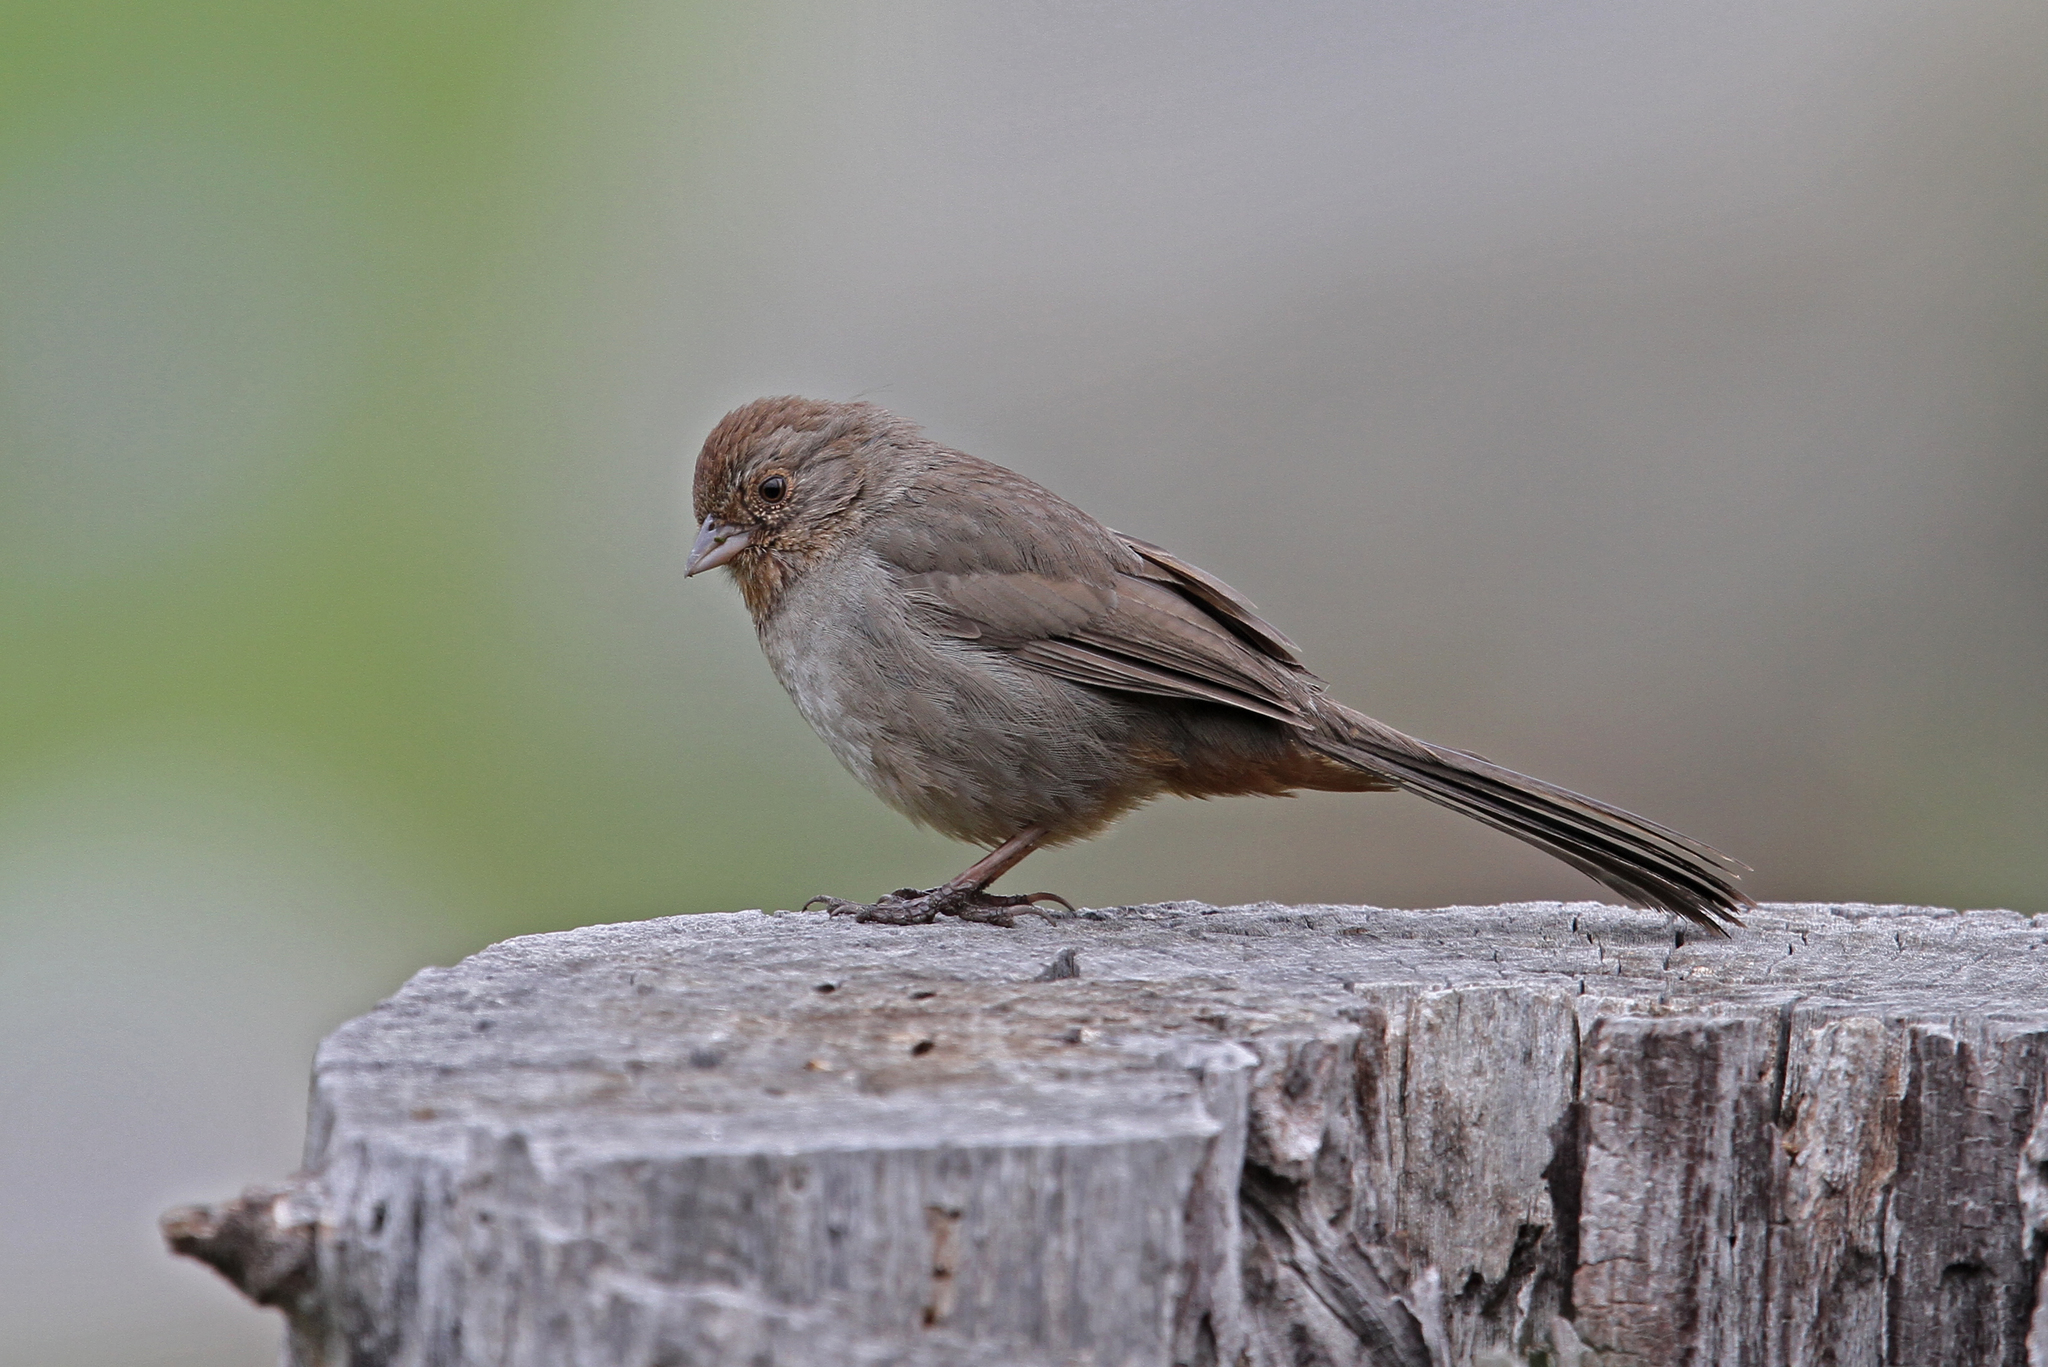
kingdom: Animalia
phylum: Chordata
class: Aves
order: Passeriformes
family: Passerellidae
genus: Melozone
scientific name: Melozone crissalis
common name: California towhee
